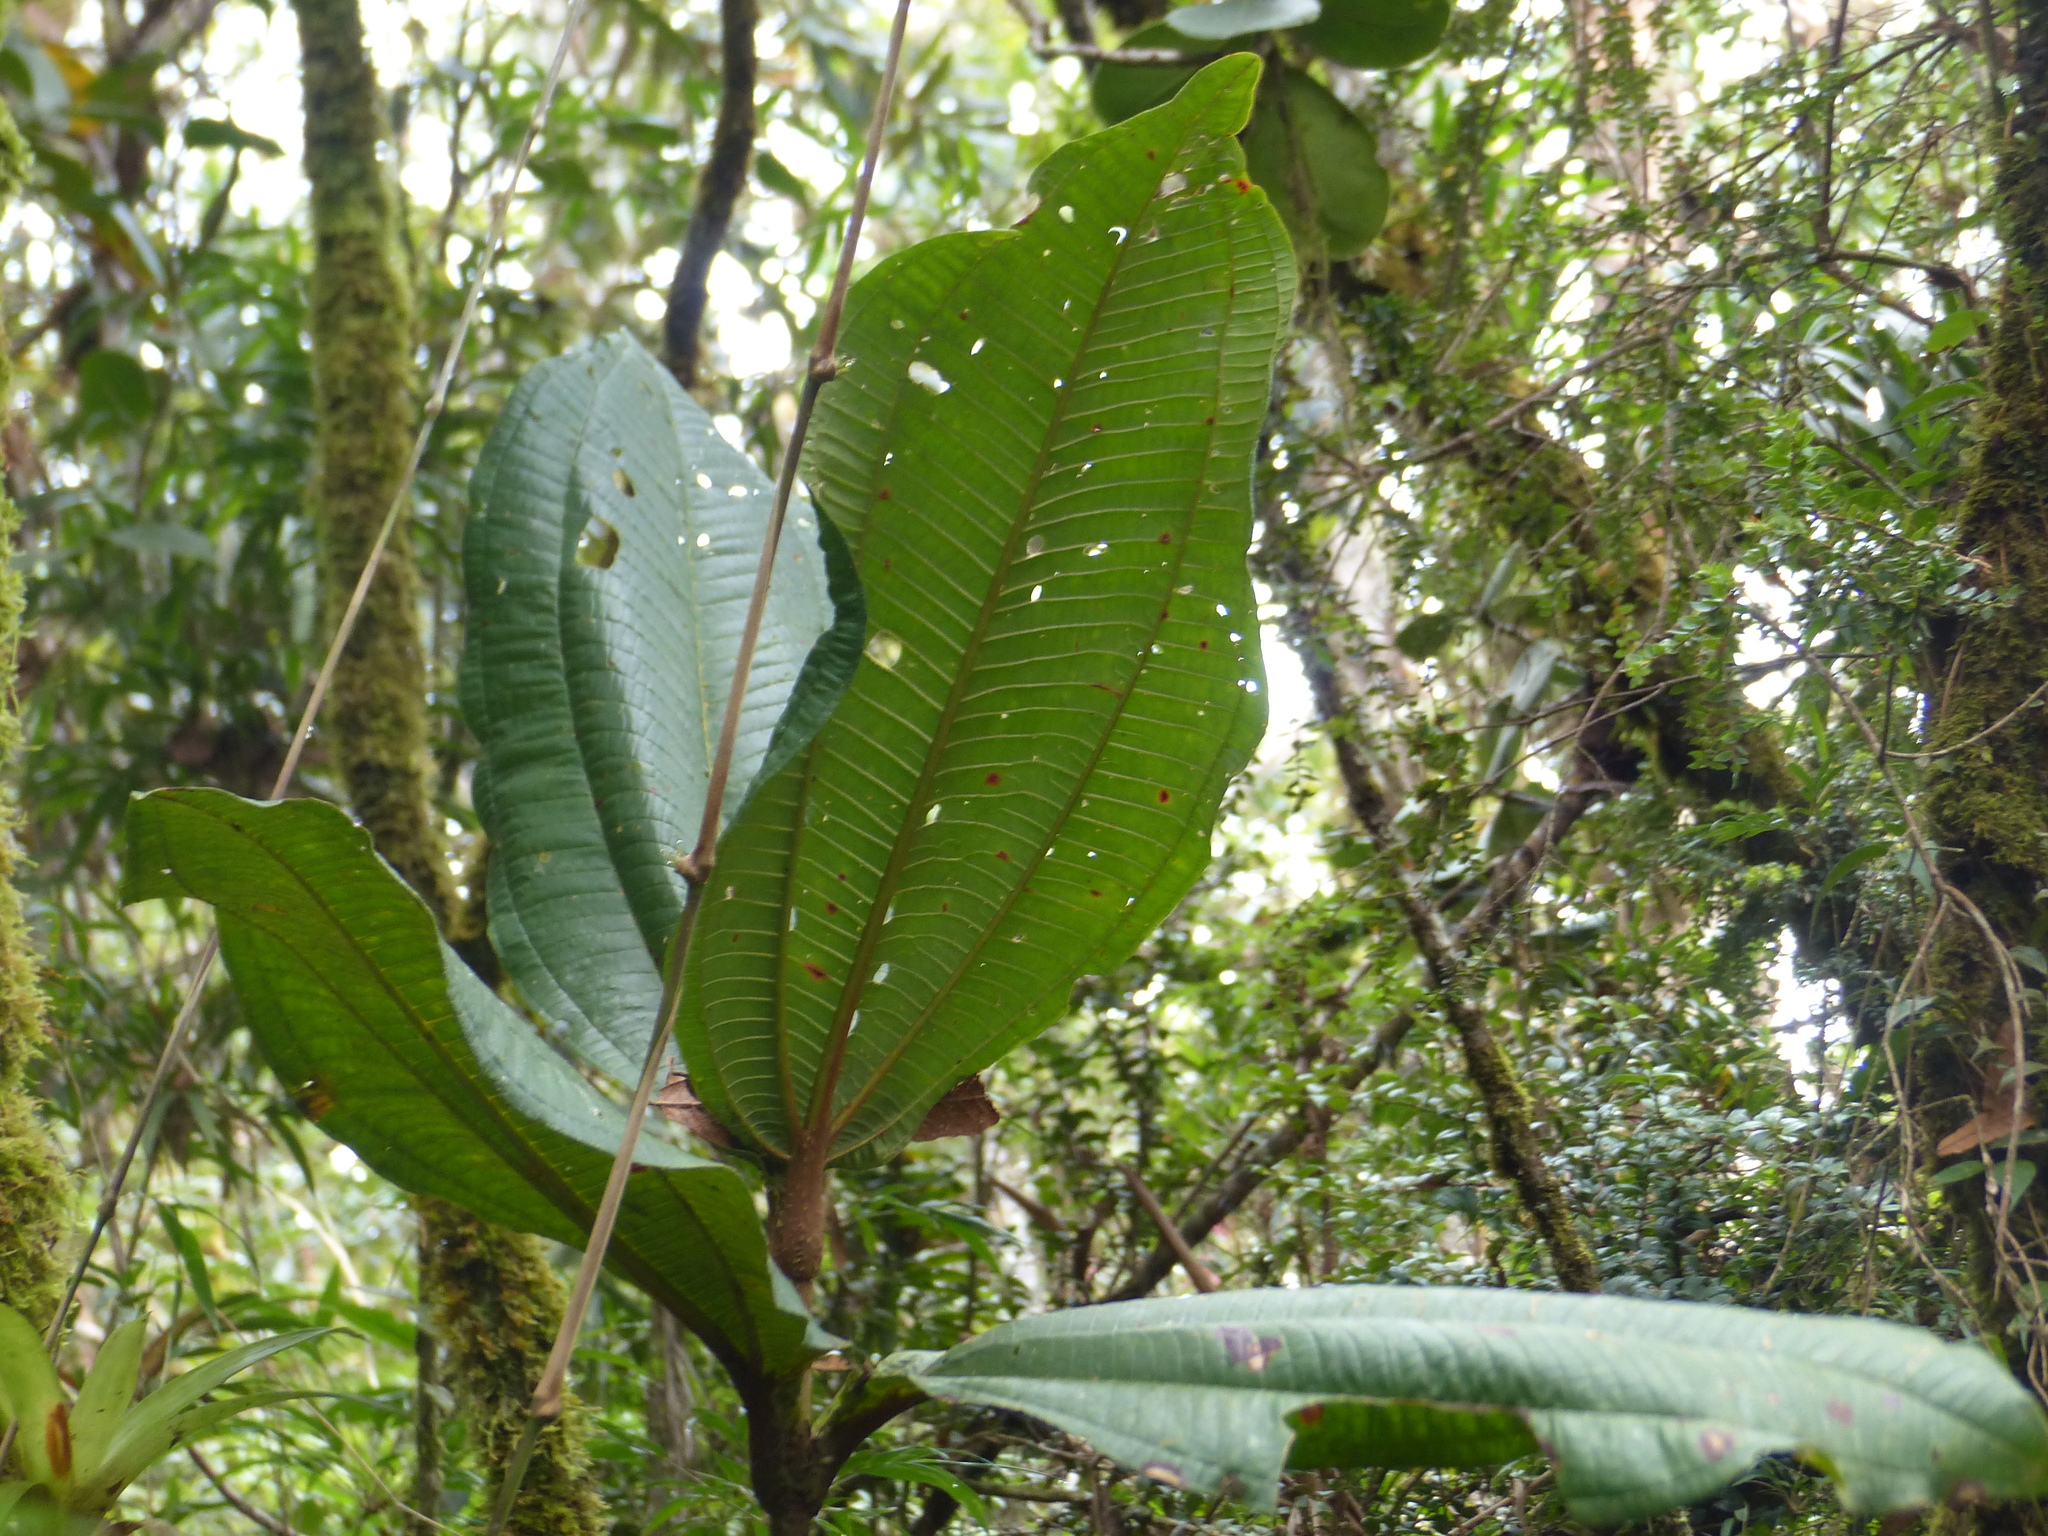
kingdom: Plantae
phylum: Tracheophyta
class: Magnoliopsida
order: Myrtales
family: Melastomataceae
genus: Graffenrieda
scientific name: Graffenrieda uribei
